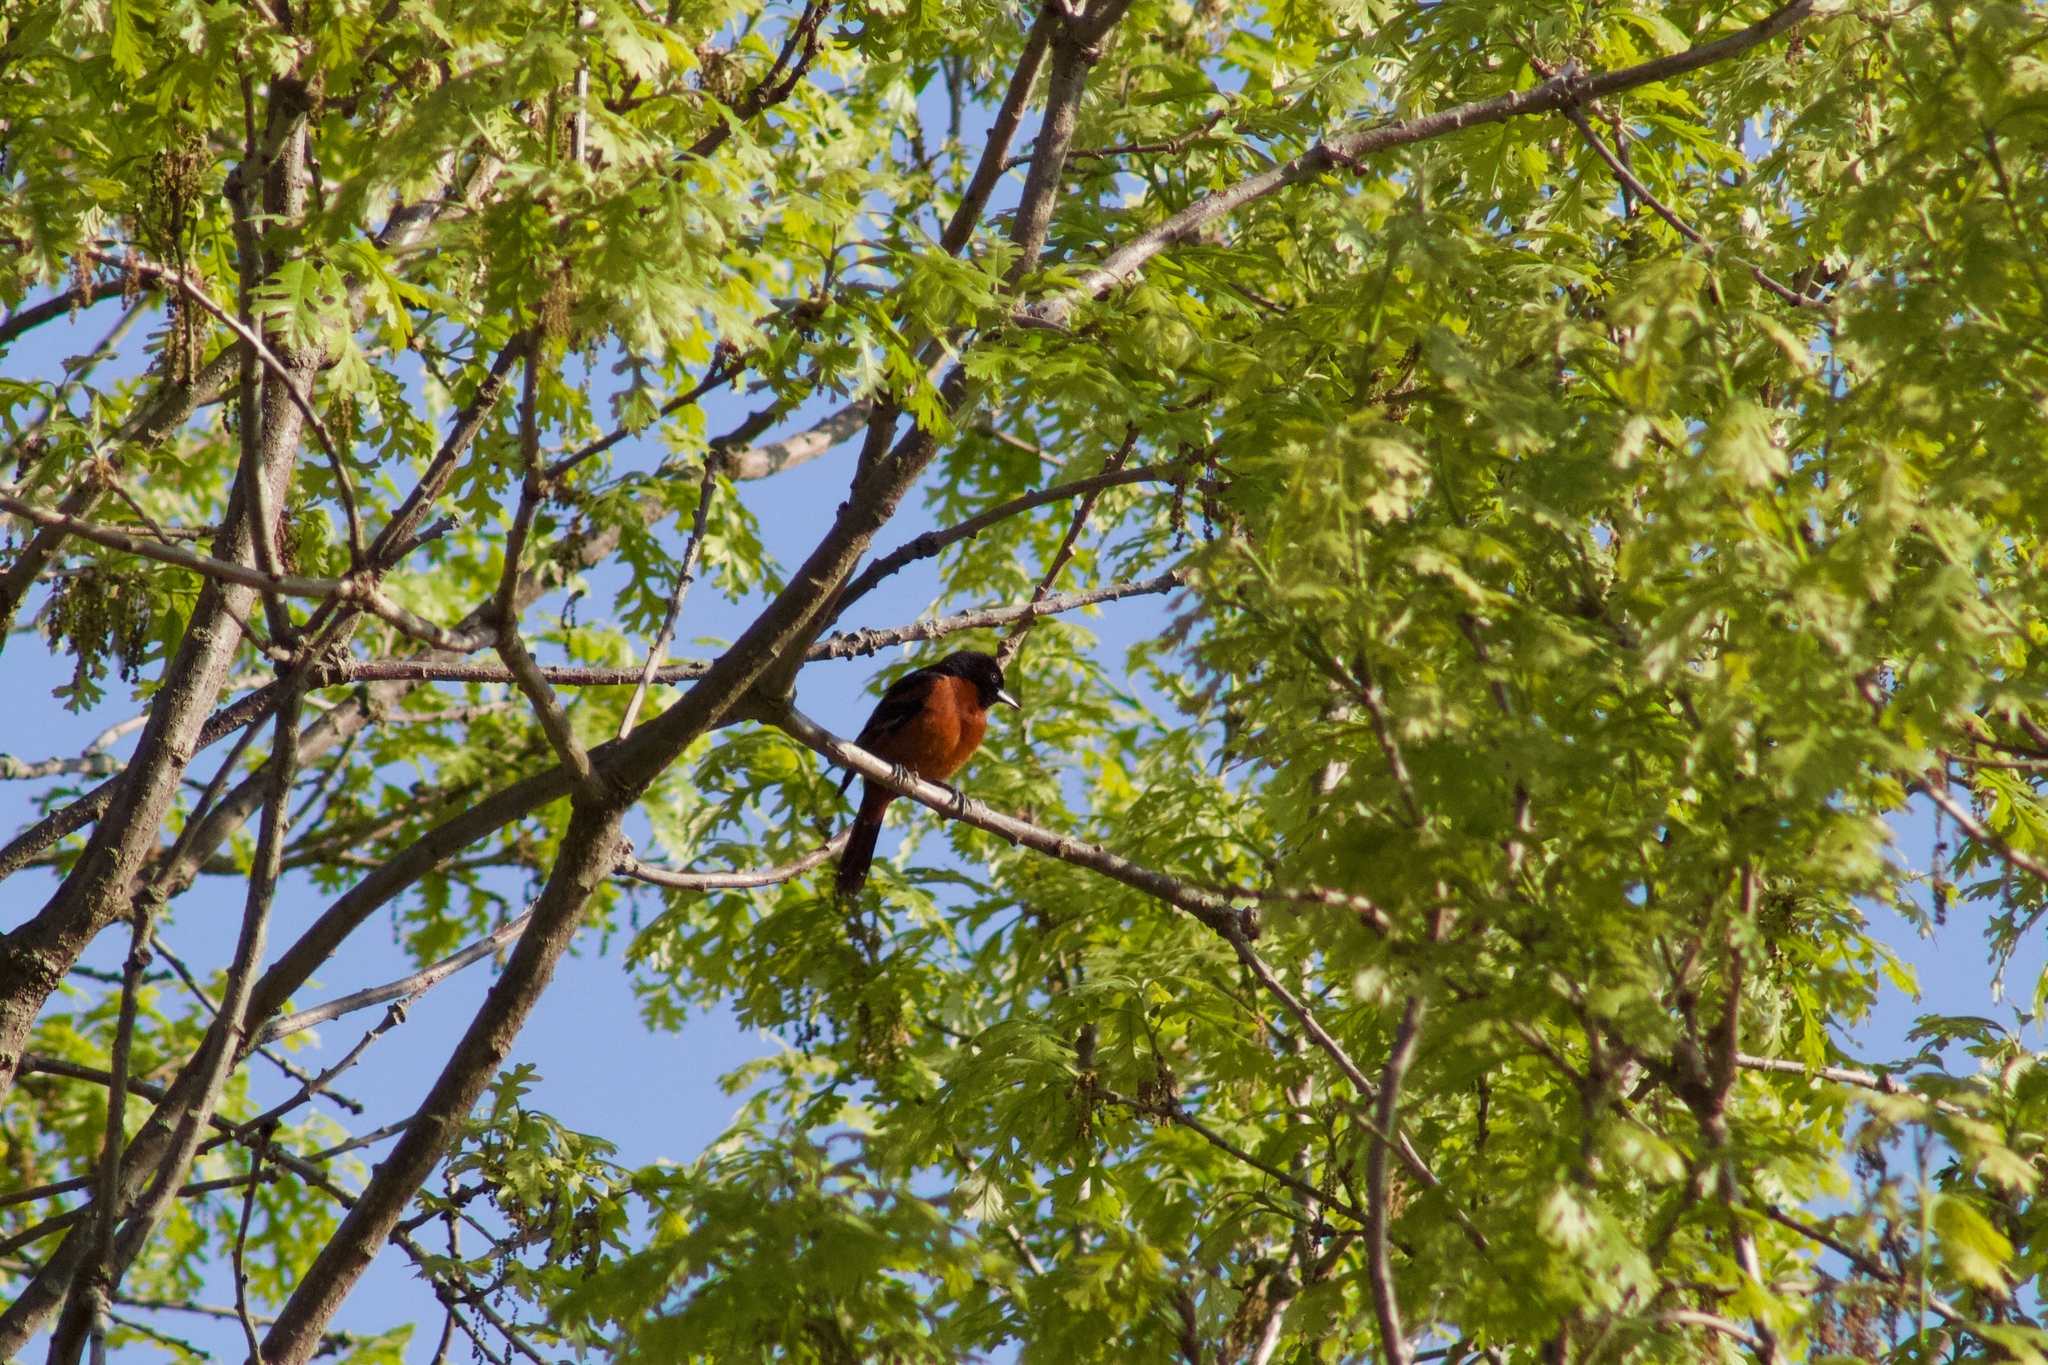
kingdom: Animalia
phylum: Chordata
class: Aves
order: Passeriformes
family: Icteridae
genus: Icterus
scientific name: Icterus spurius
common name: Orchard oriole
